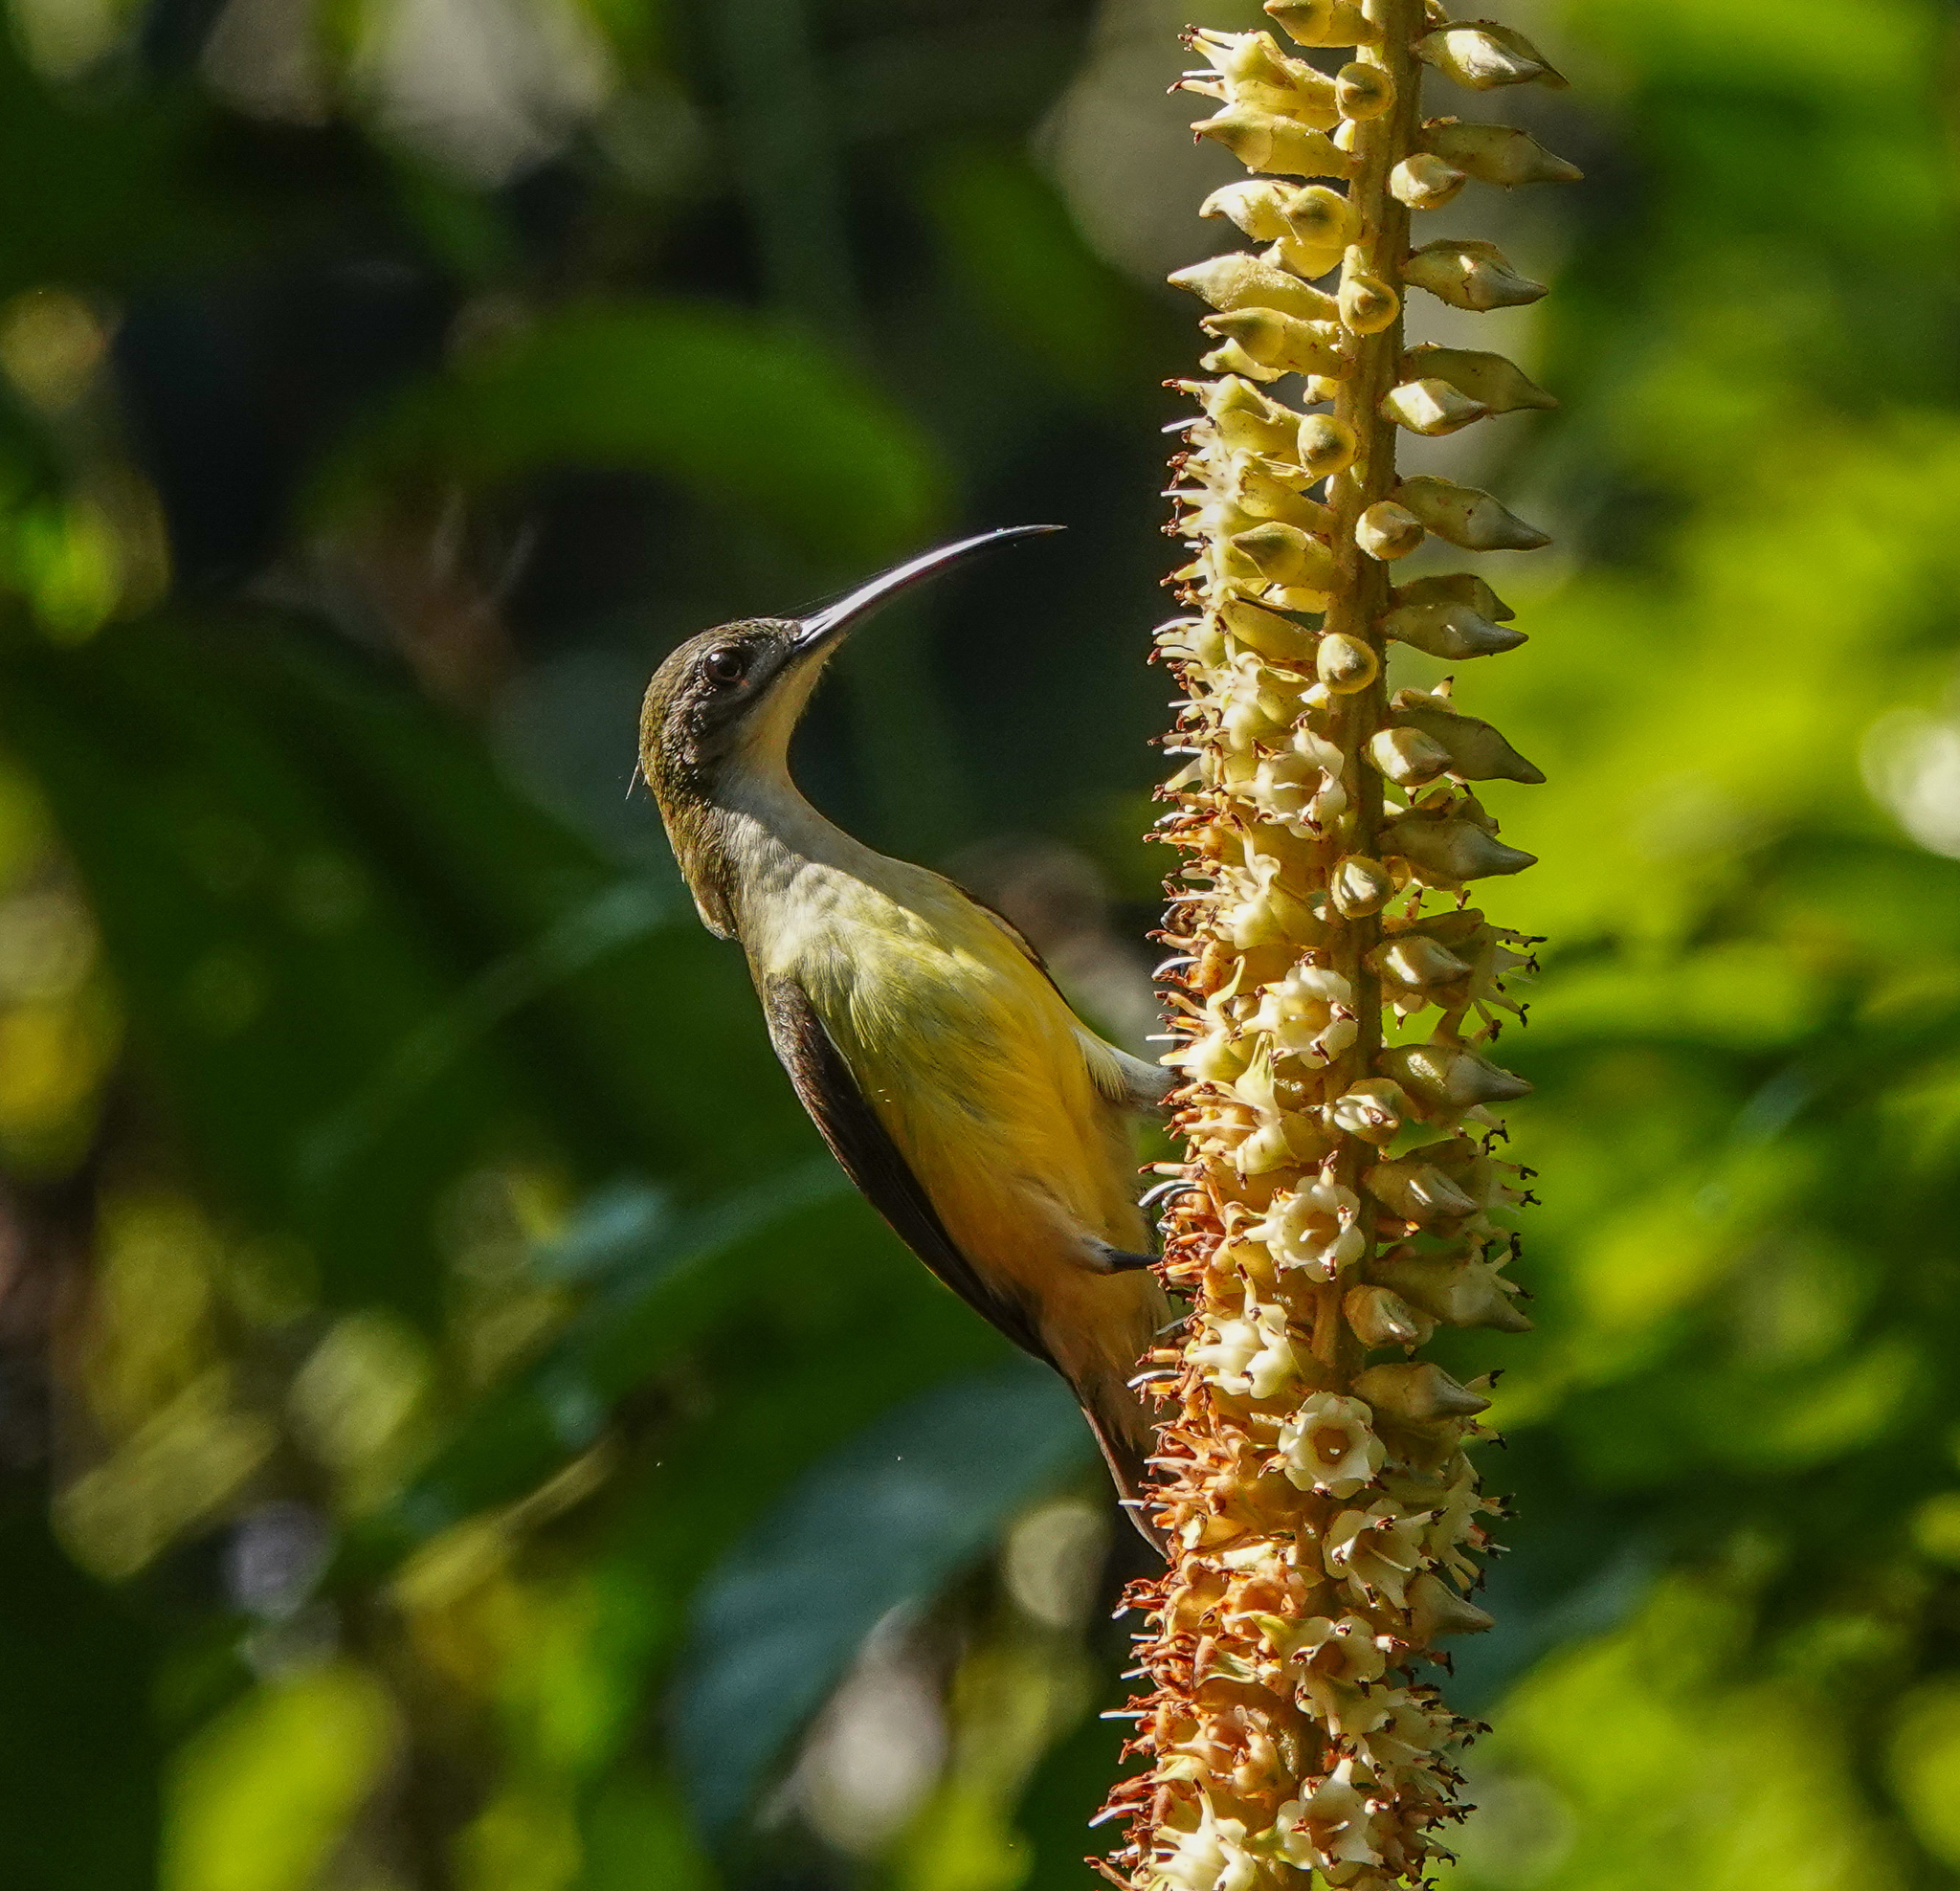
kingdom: Animalia
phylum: Chordata
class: Aves
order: Passeriformes
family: Nectariniidae
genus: Arachnothera
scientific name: Arachnothera longirostra
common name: Little spiderhunter
